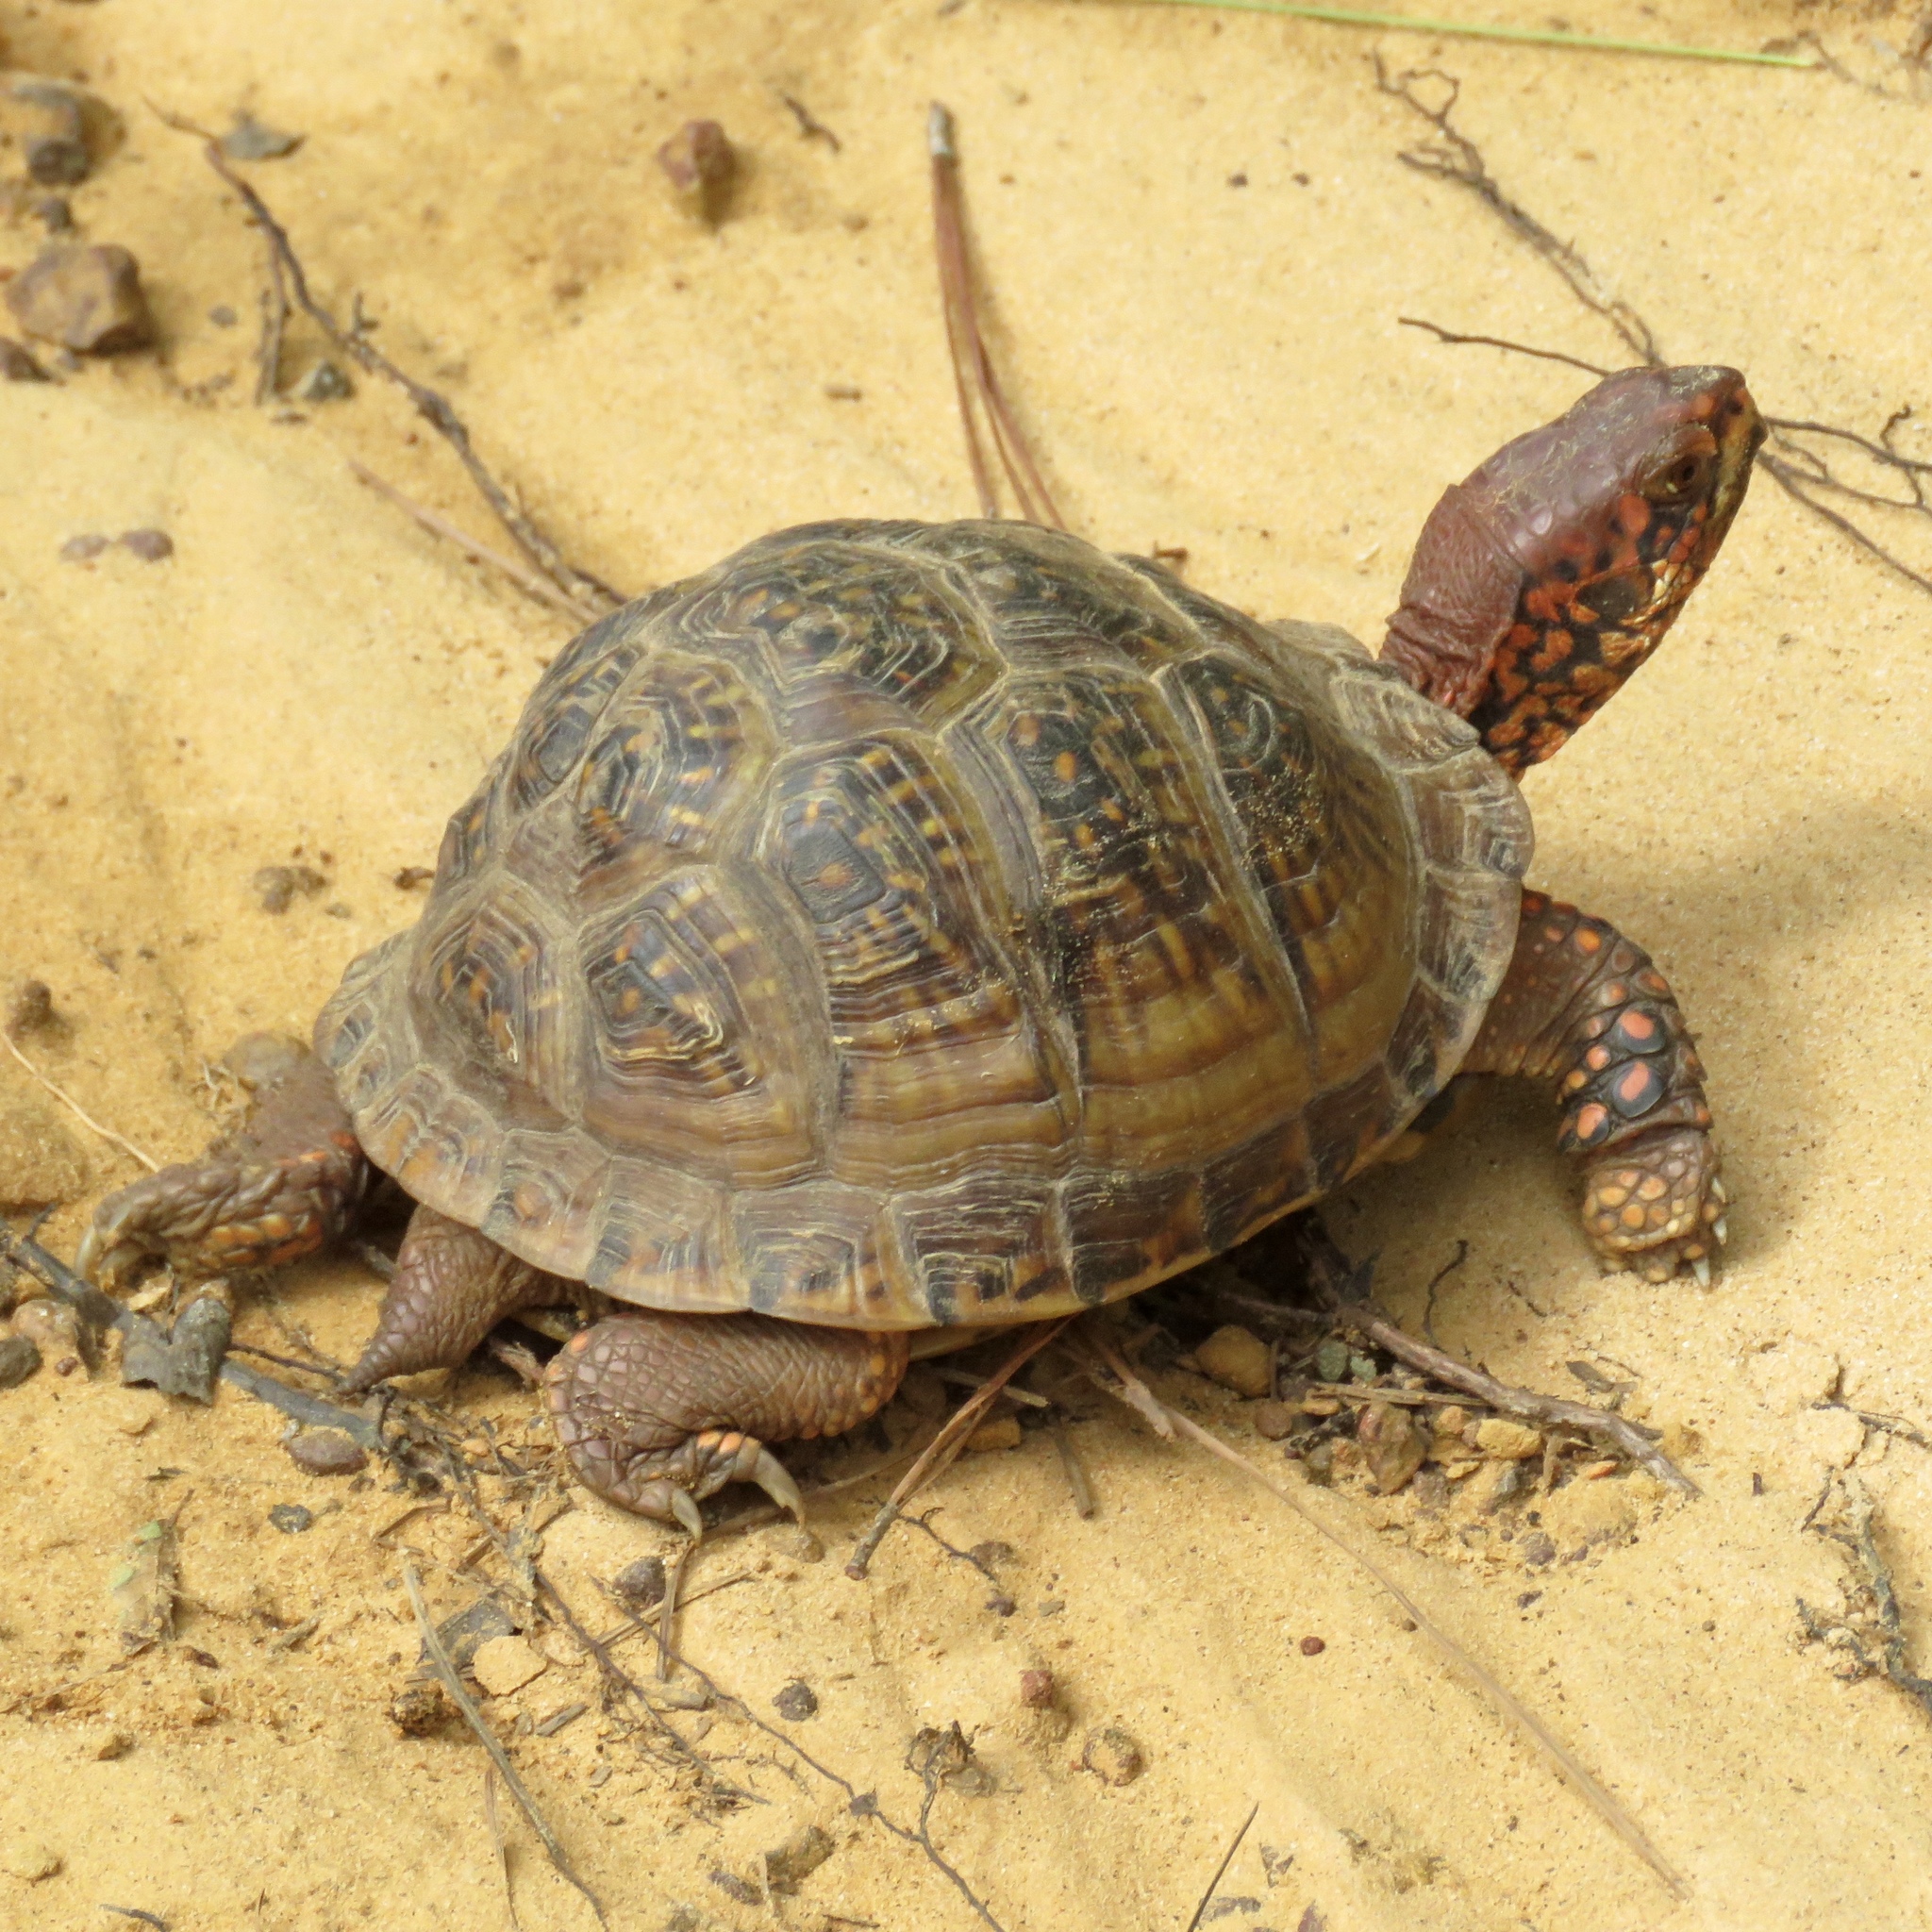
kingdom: Animalia
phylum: Chordata
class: Testudines
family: Emydidae
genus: Terrapene
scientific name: Terrapene carolina
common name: Common box turtle
